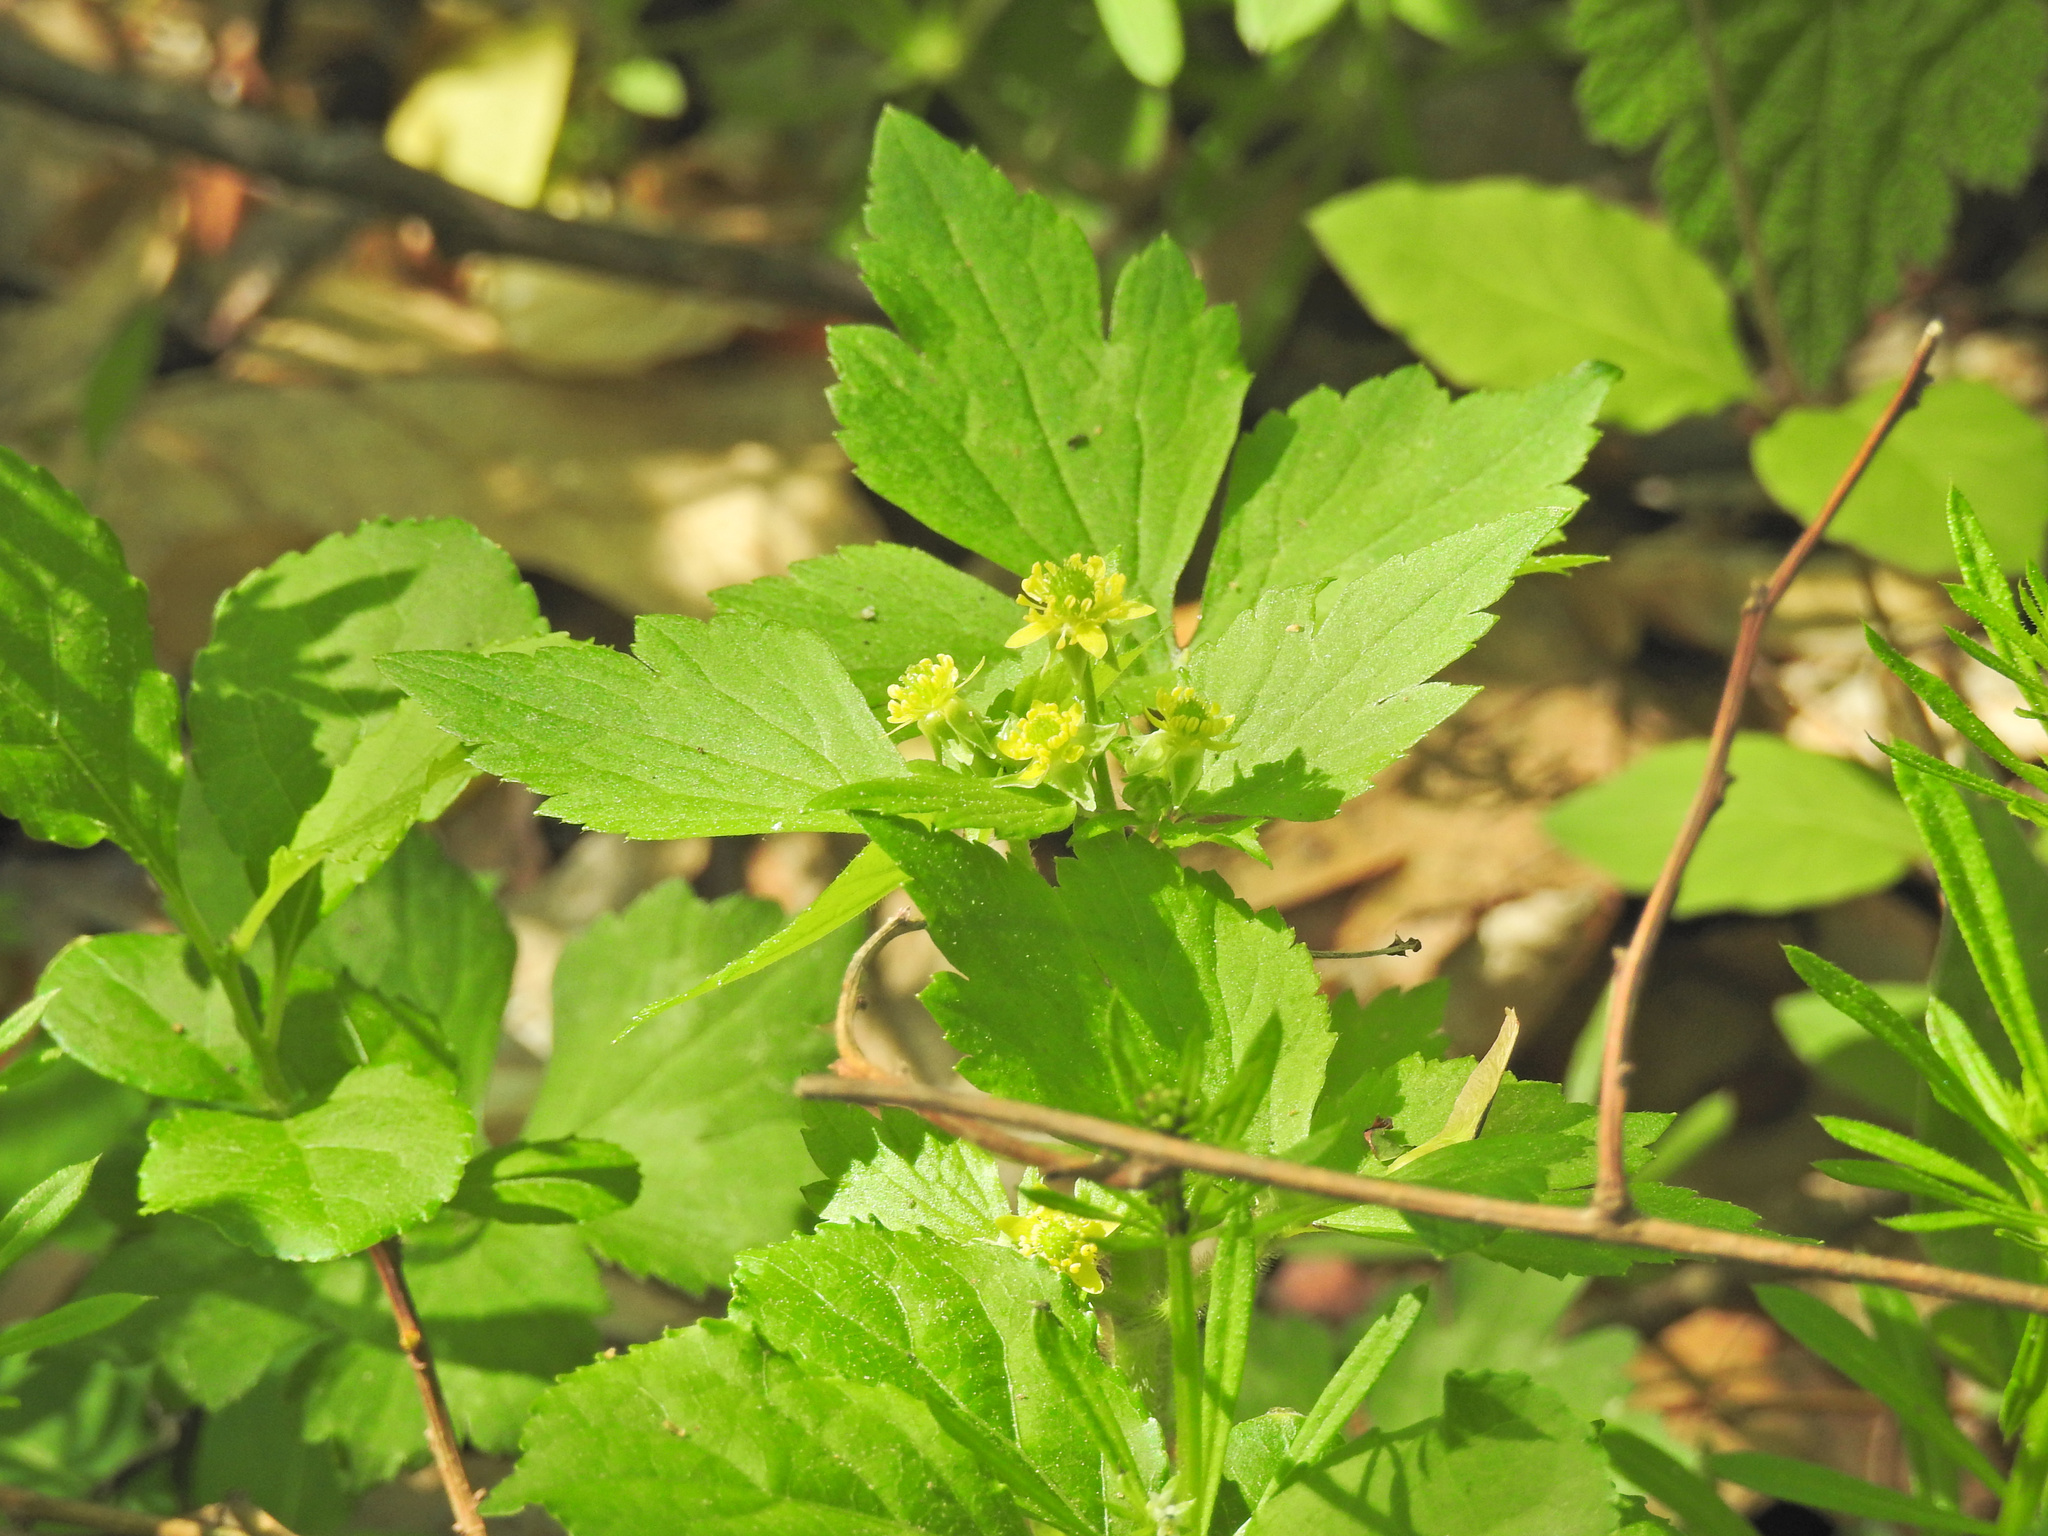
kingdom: Plantae
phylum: Tracheophyta
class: Magnoliopsida
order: Ranunculales
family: Ranunculaceae
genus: Ranunculus
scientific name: Ranunculus recurvatus
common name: Blisterwort
